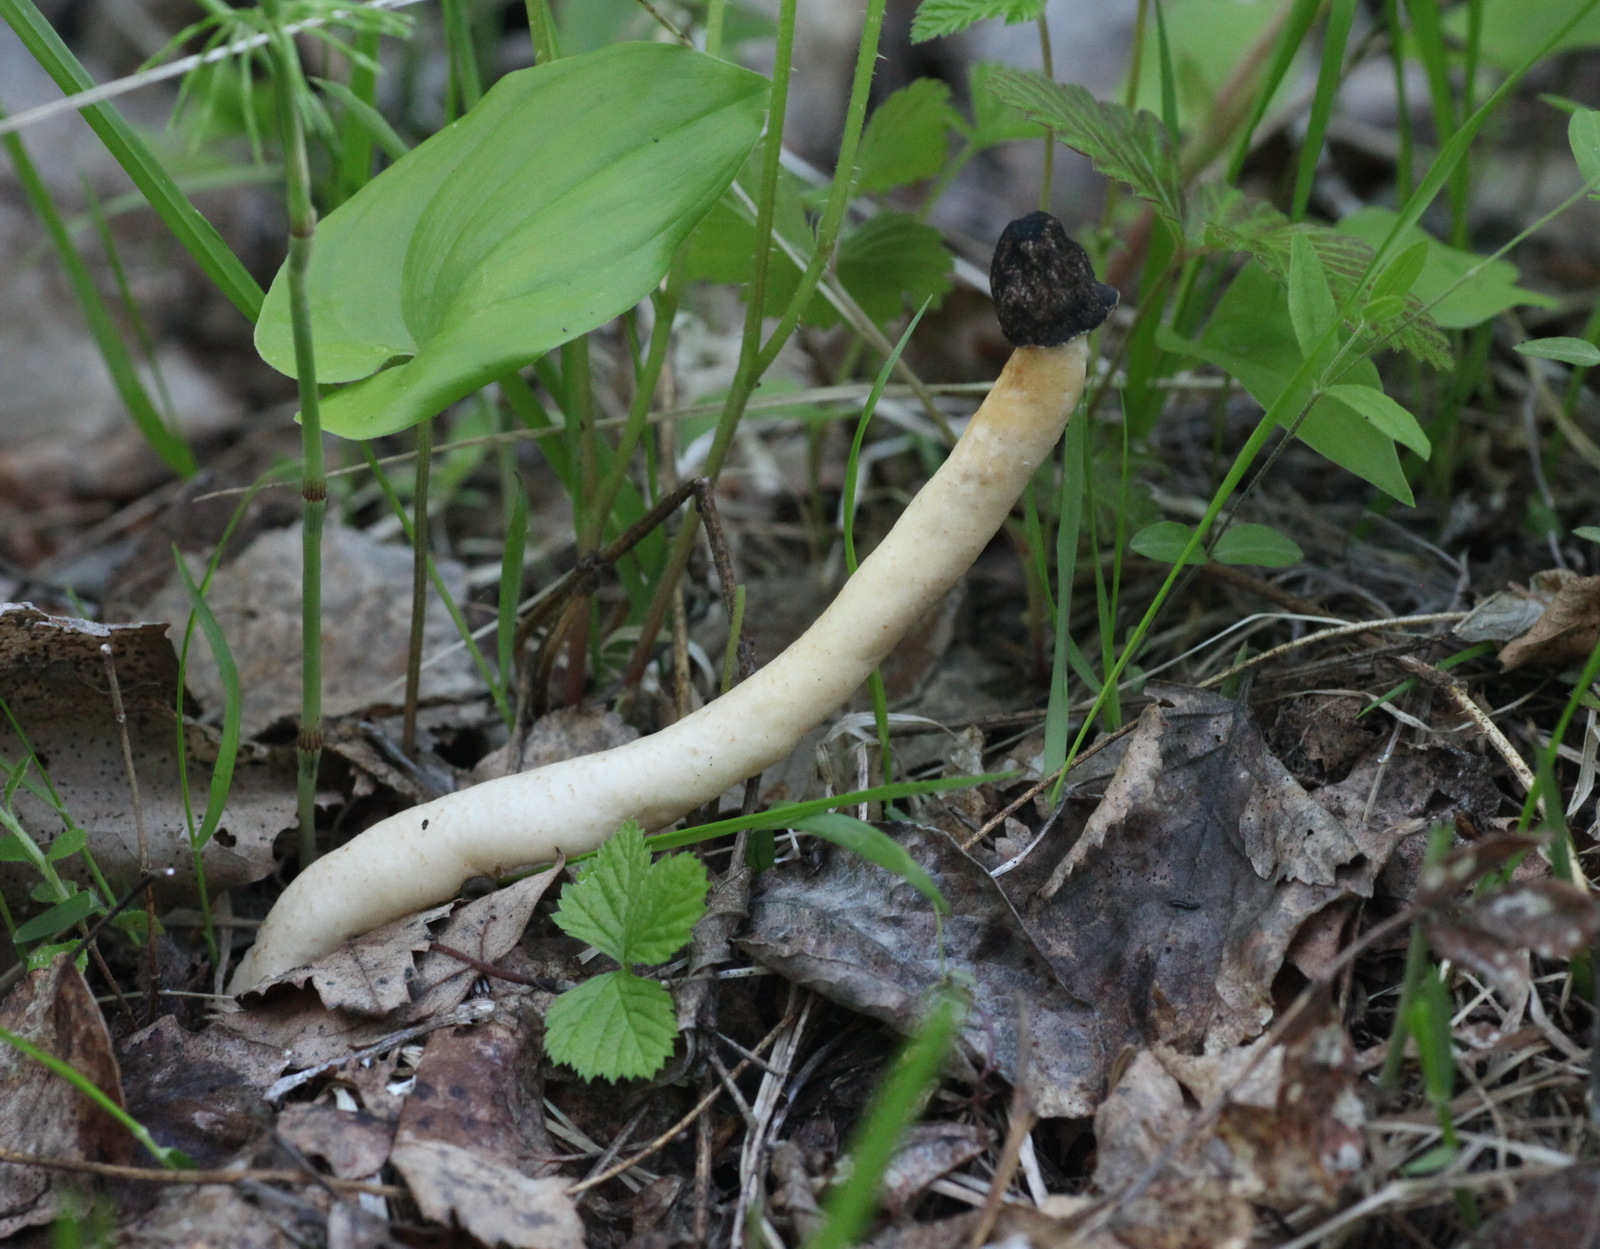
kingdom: Fungi
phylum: Ascomycota
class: Pezizomycetes
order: Pezizales
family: Morchellaceae
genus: Verpa
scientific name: Verpa conica
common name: Thimble morel
